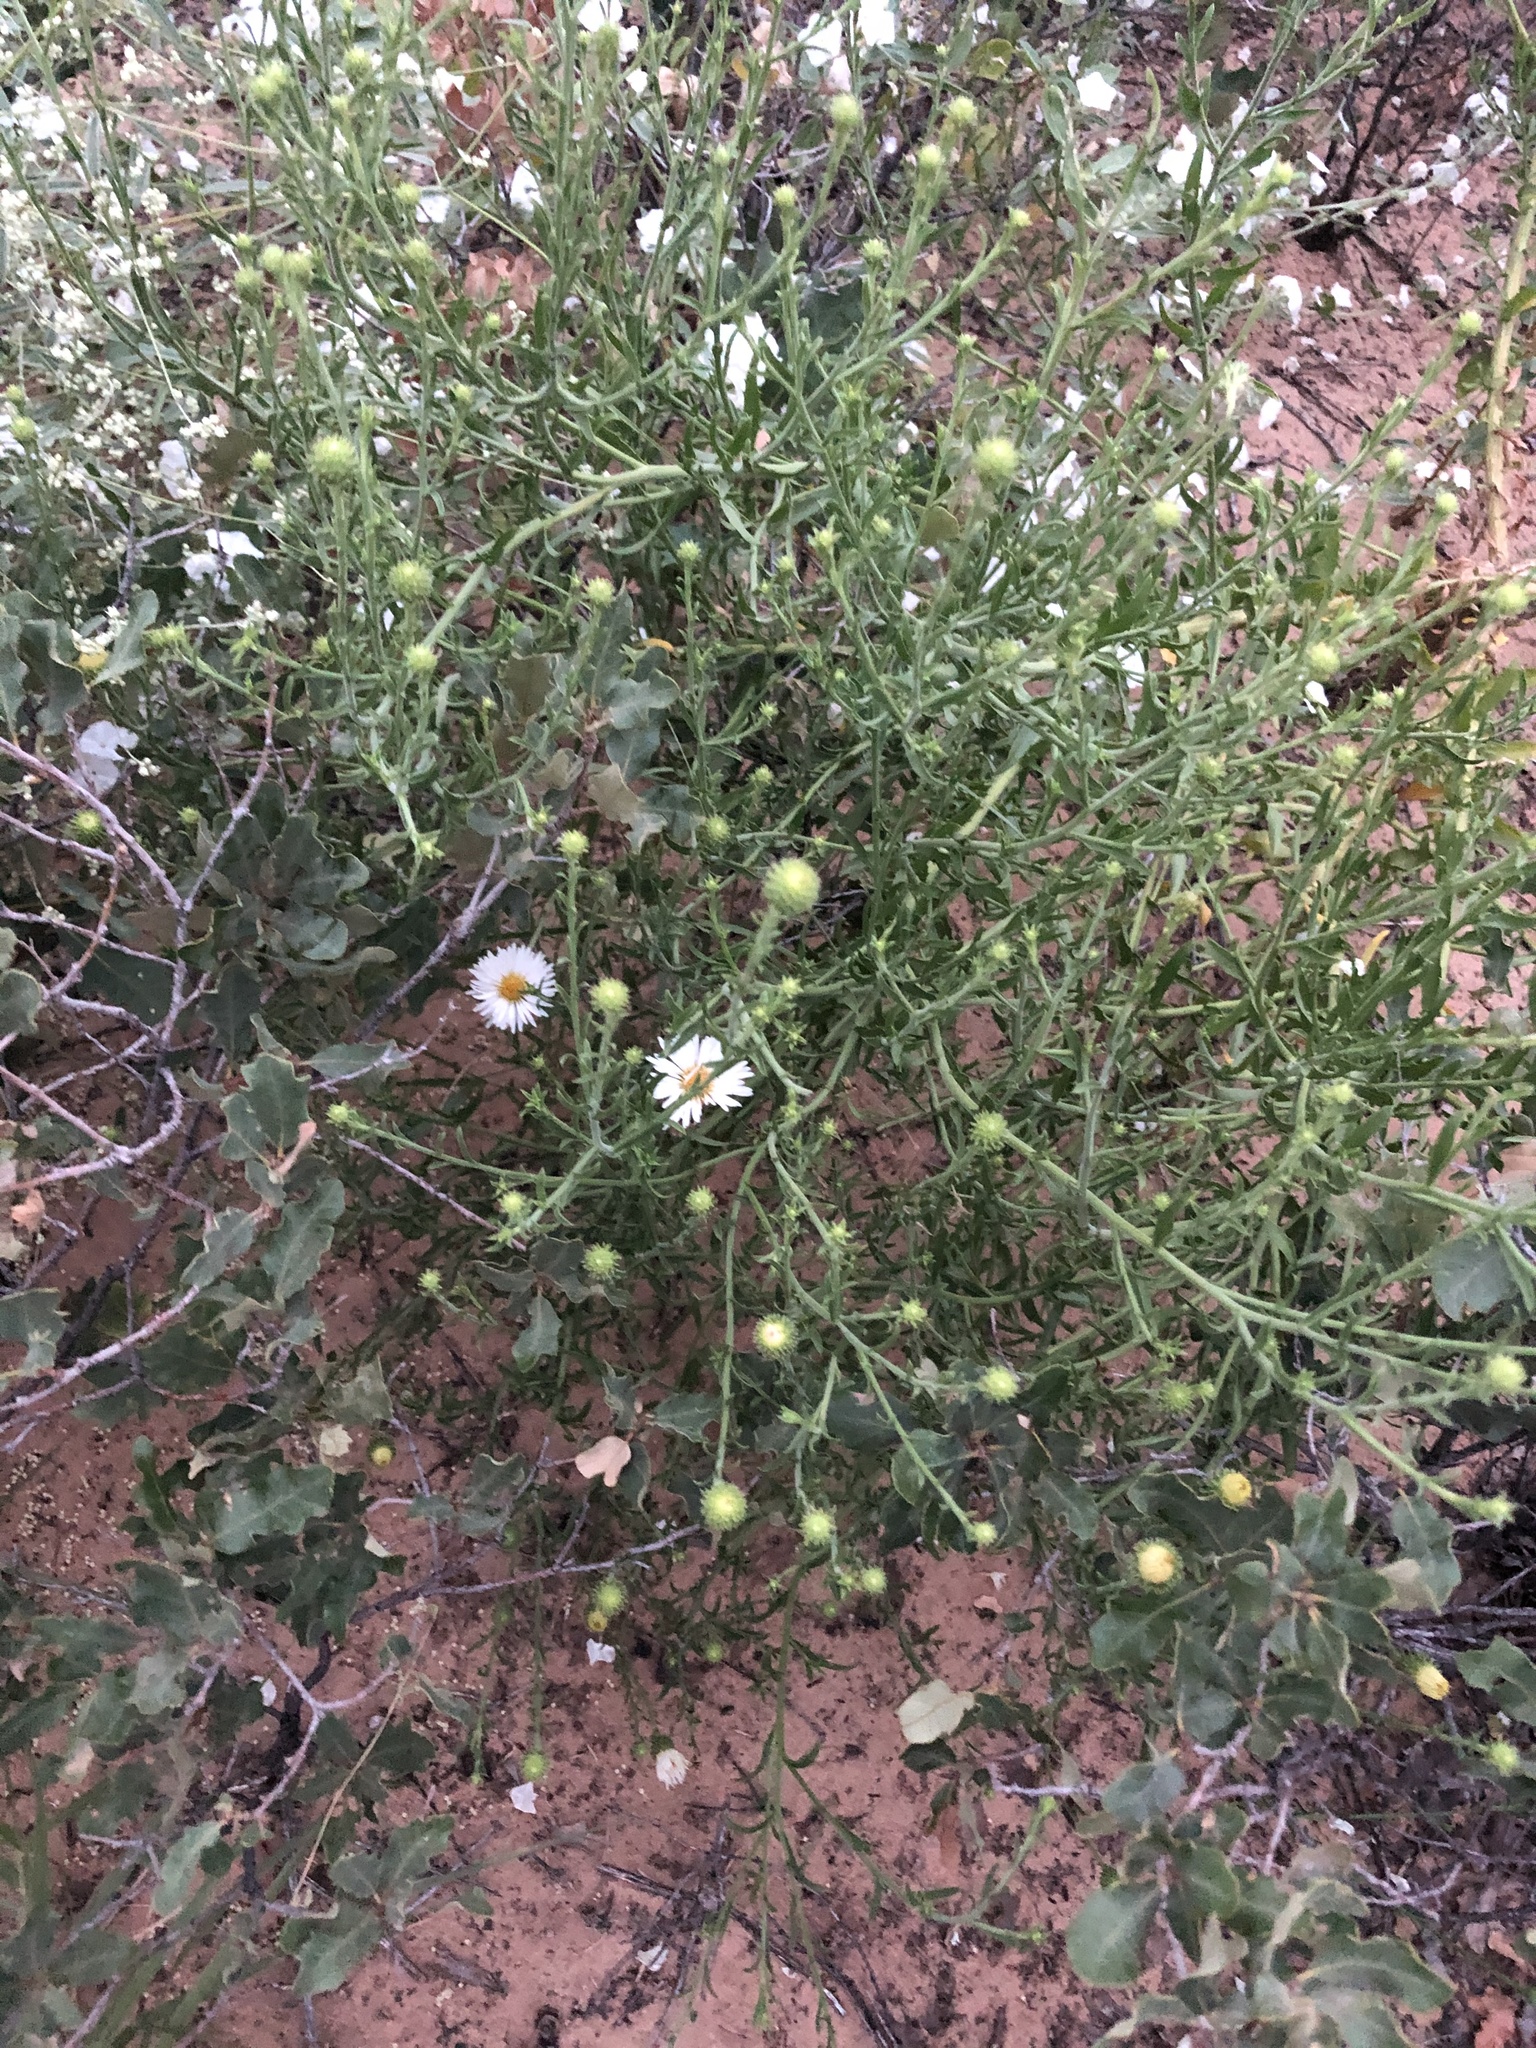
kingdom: Plantae
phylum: Tracheophyta
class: Magnoliopsida
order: Asterales
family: Asteraceae
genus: Dieteria
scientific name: Dieteria canescens
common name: Hoary-aster
